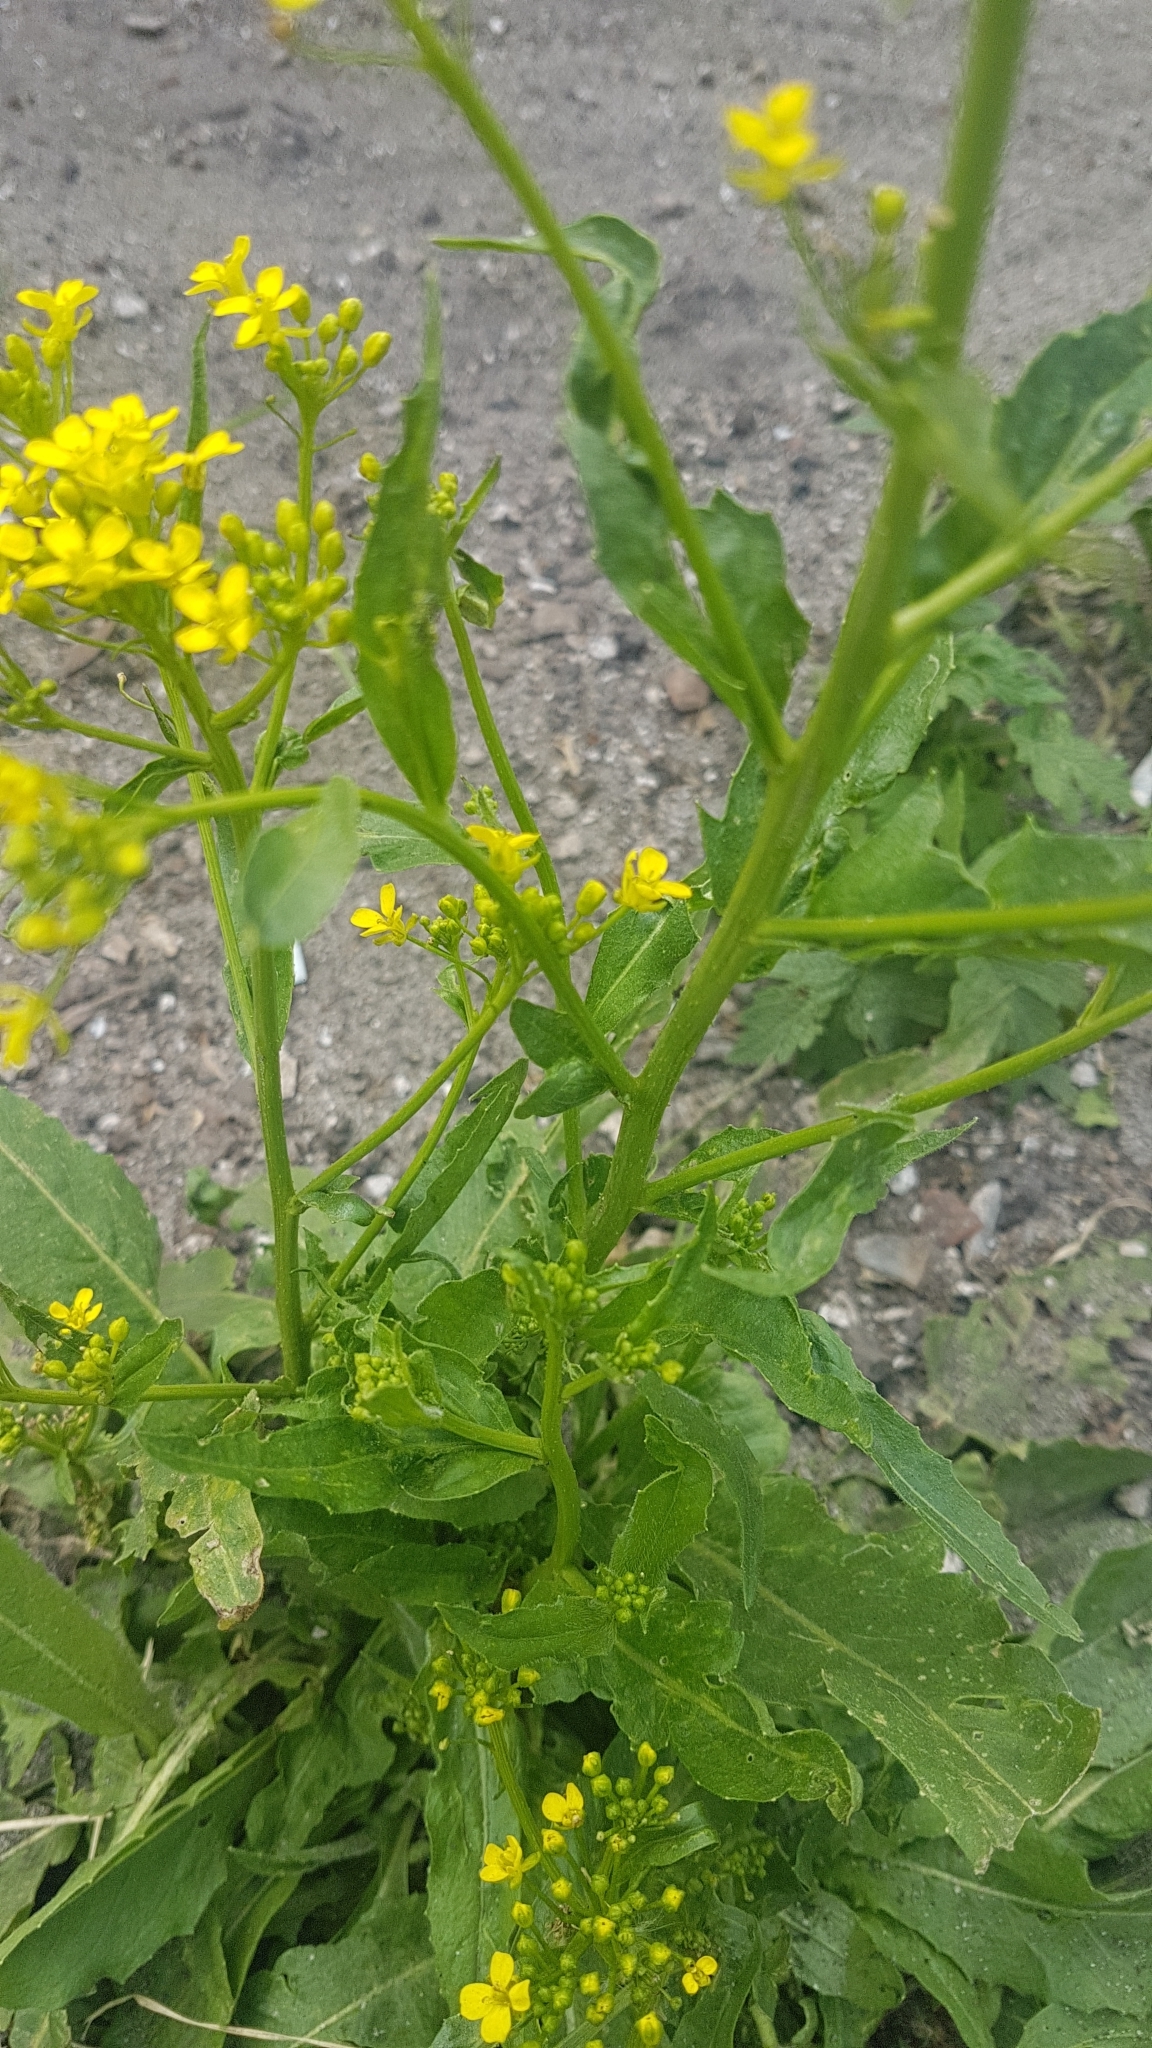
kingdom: Plantae
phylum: Tracheophyta
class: Magnoliopsida
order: Brassicales
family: Brassicaceae
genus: Bunias
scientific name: Bunias orientalis
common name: Warty-cabbage
